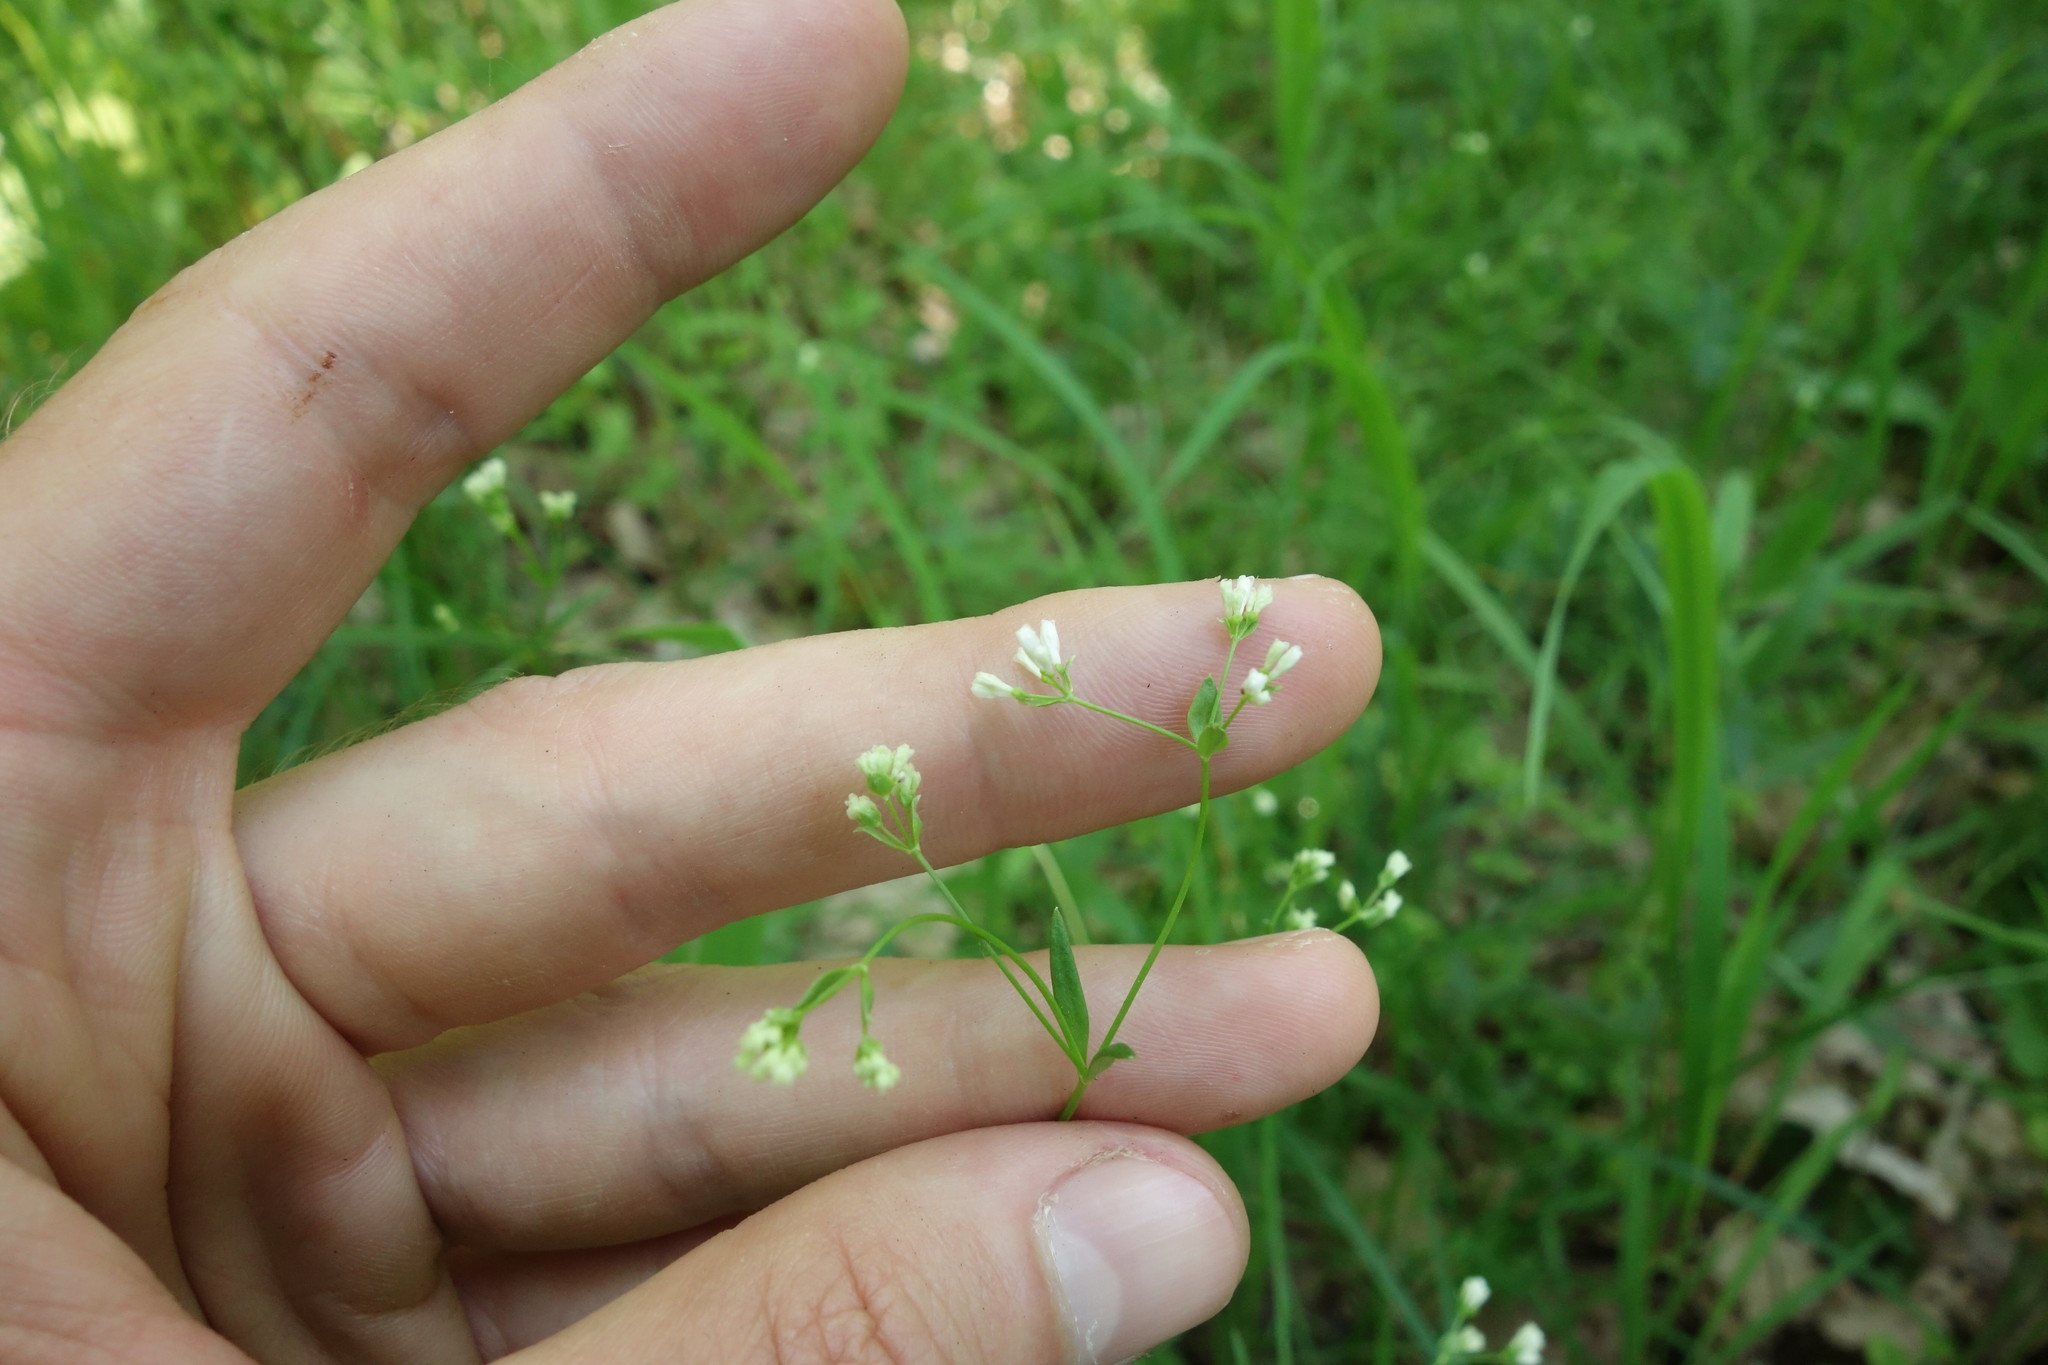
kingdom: Plantae
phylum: Tracheophyta
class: Magnoliopsida
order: Gentianales
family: Rubiaceae
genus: Asperula
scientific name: Asperula tinctoria
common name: Dyer's woodruff
